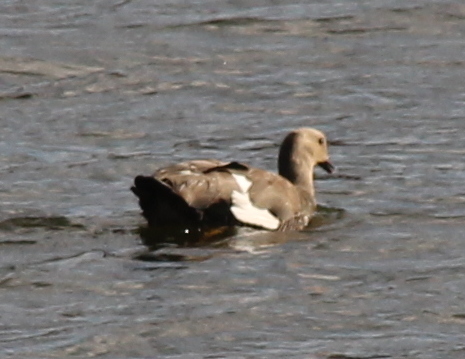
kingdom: Animalia
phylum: Chordata
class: Aves
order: Anseriformes
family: Anatidae
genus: Chloephaga
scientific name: Chloephaga picta
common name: Upland goose
